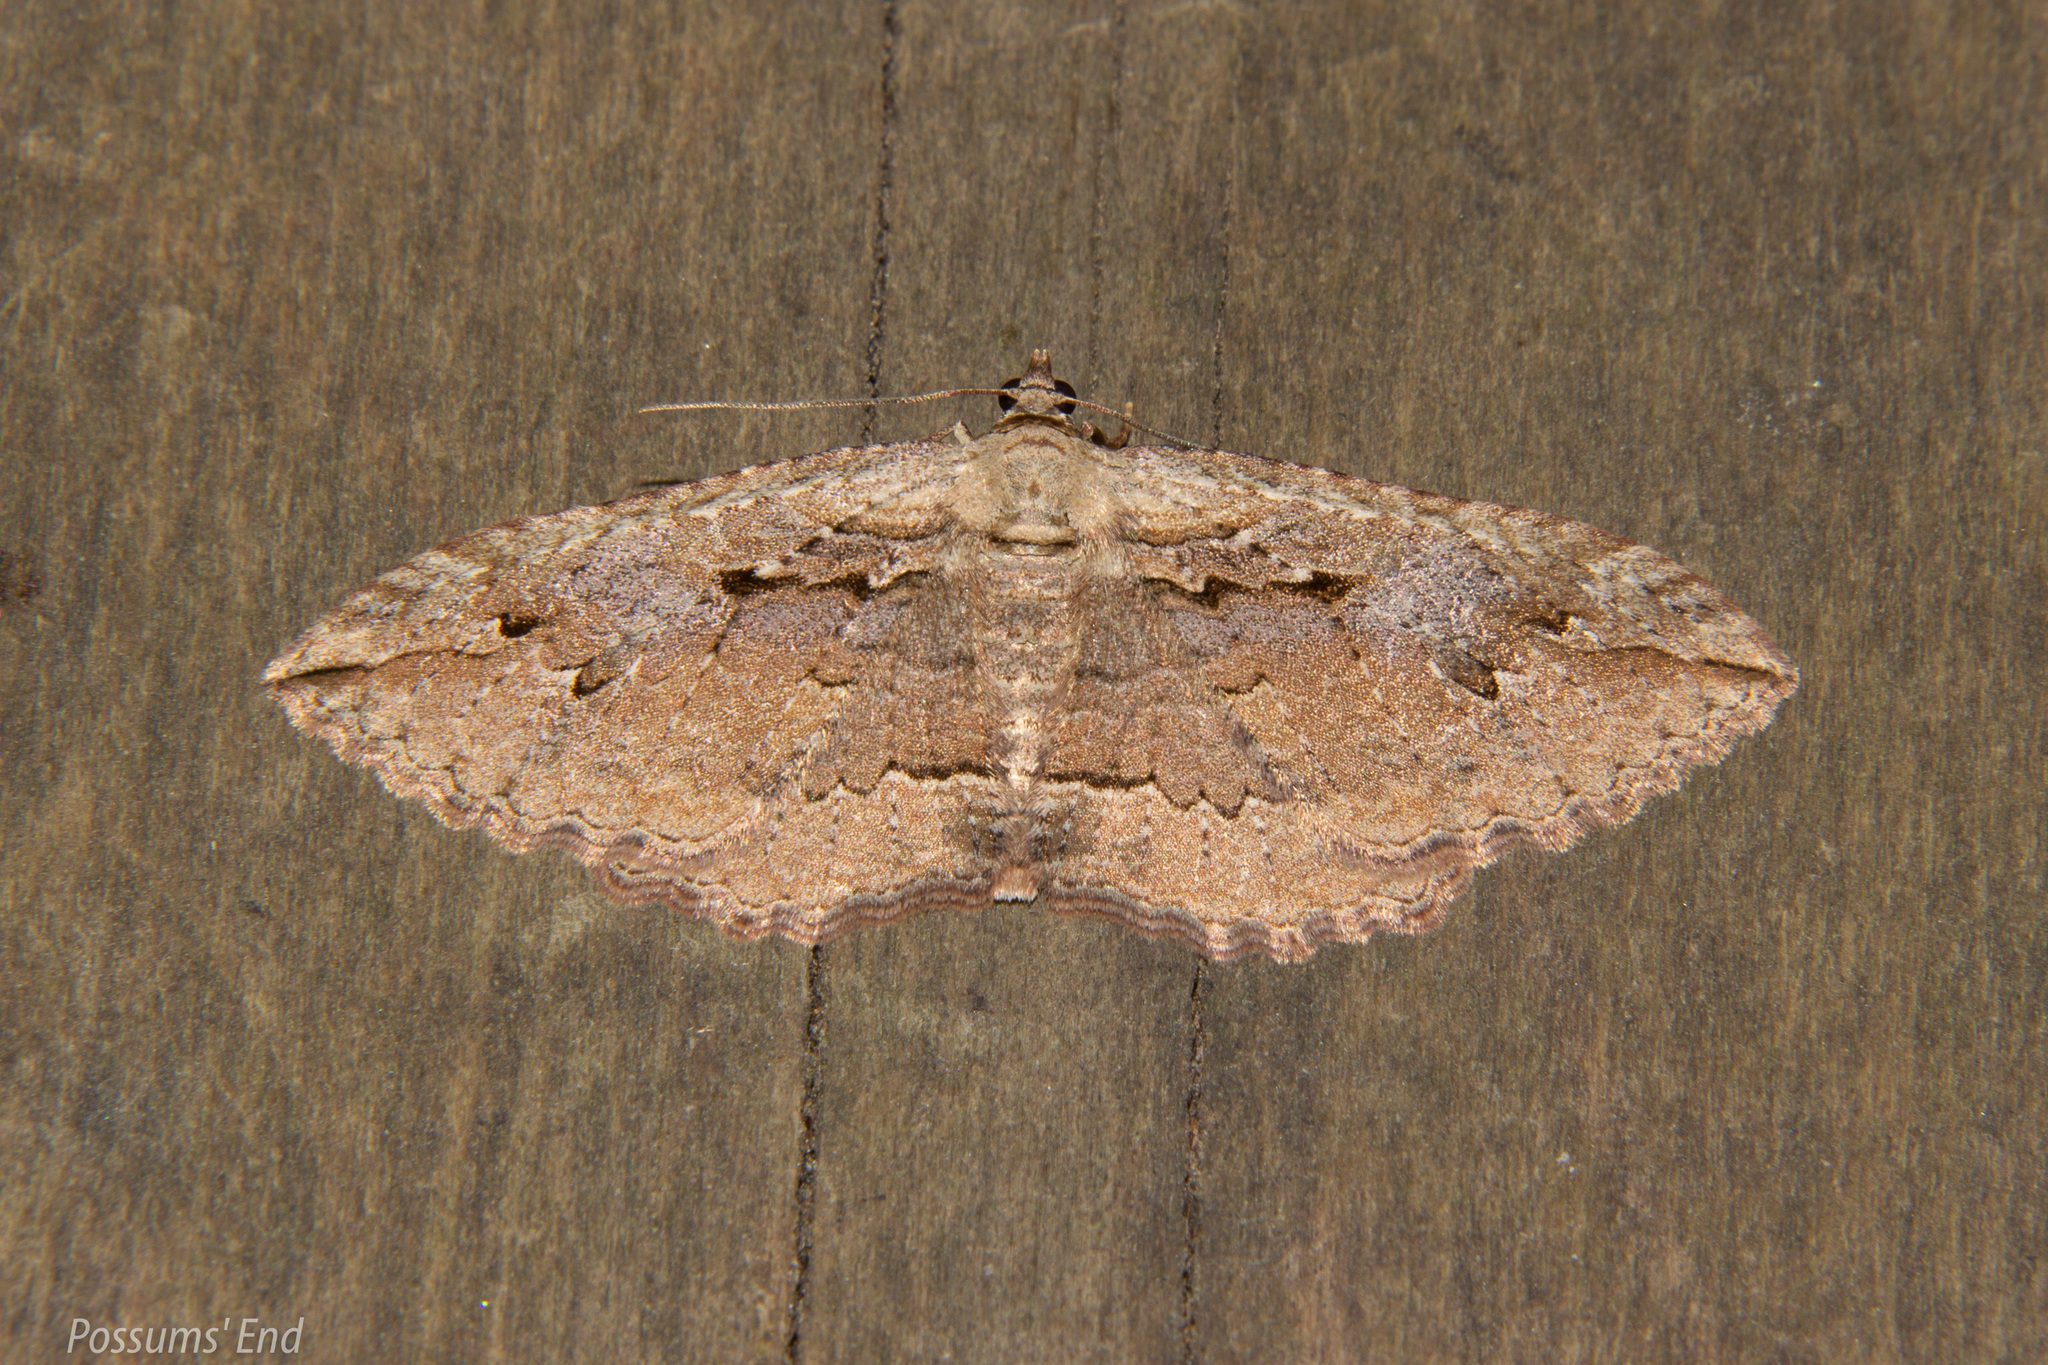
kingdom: Animalia
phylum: Arthropoda
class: Insecta
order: Lepidoptera
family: Geometridae
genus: Austrocidaria
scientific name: Austrocidaria gobiata
